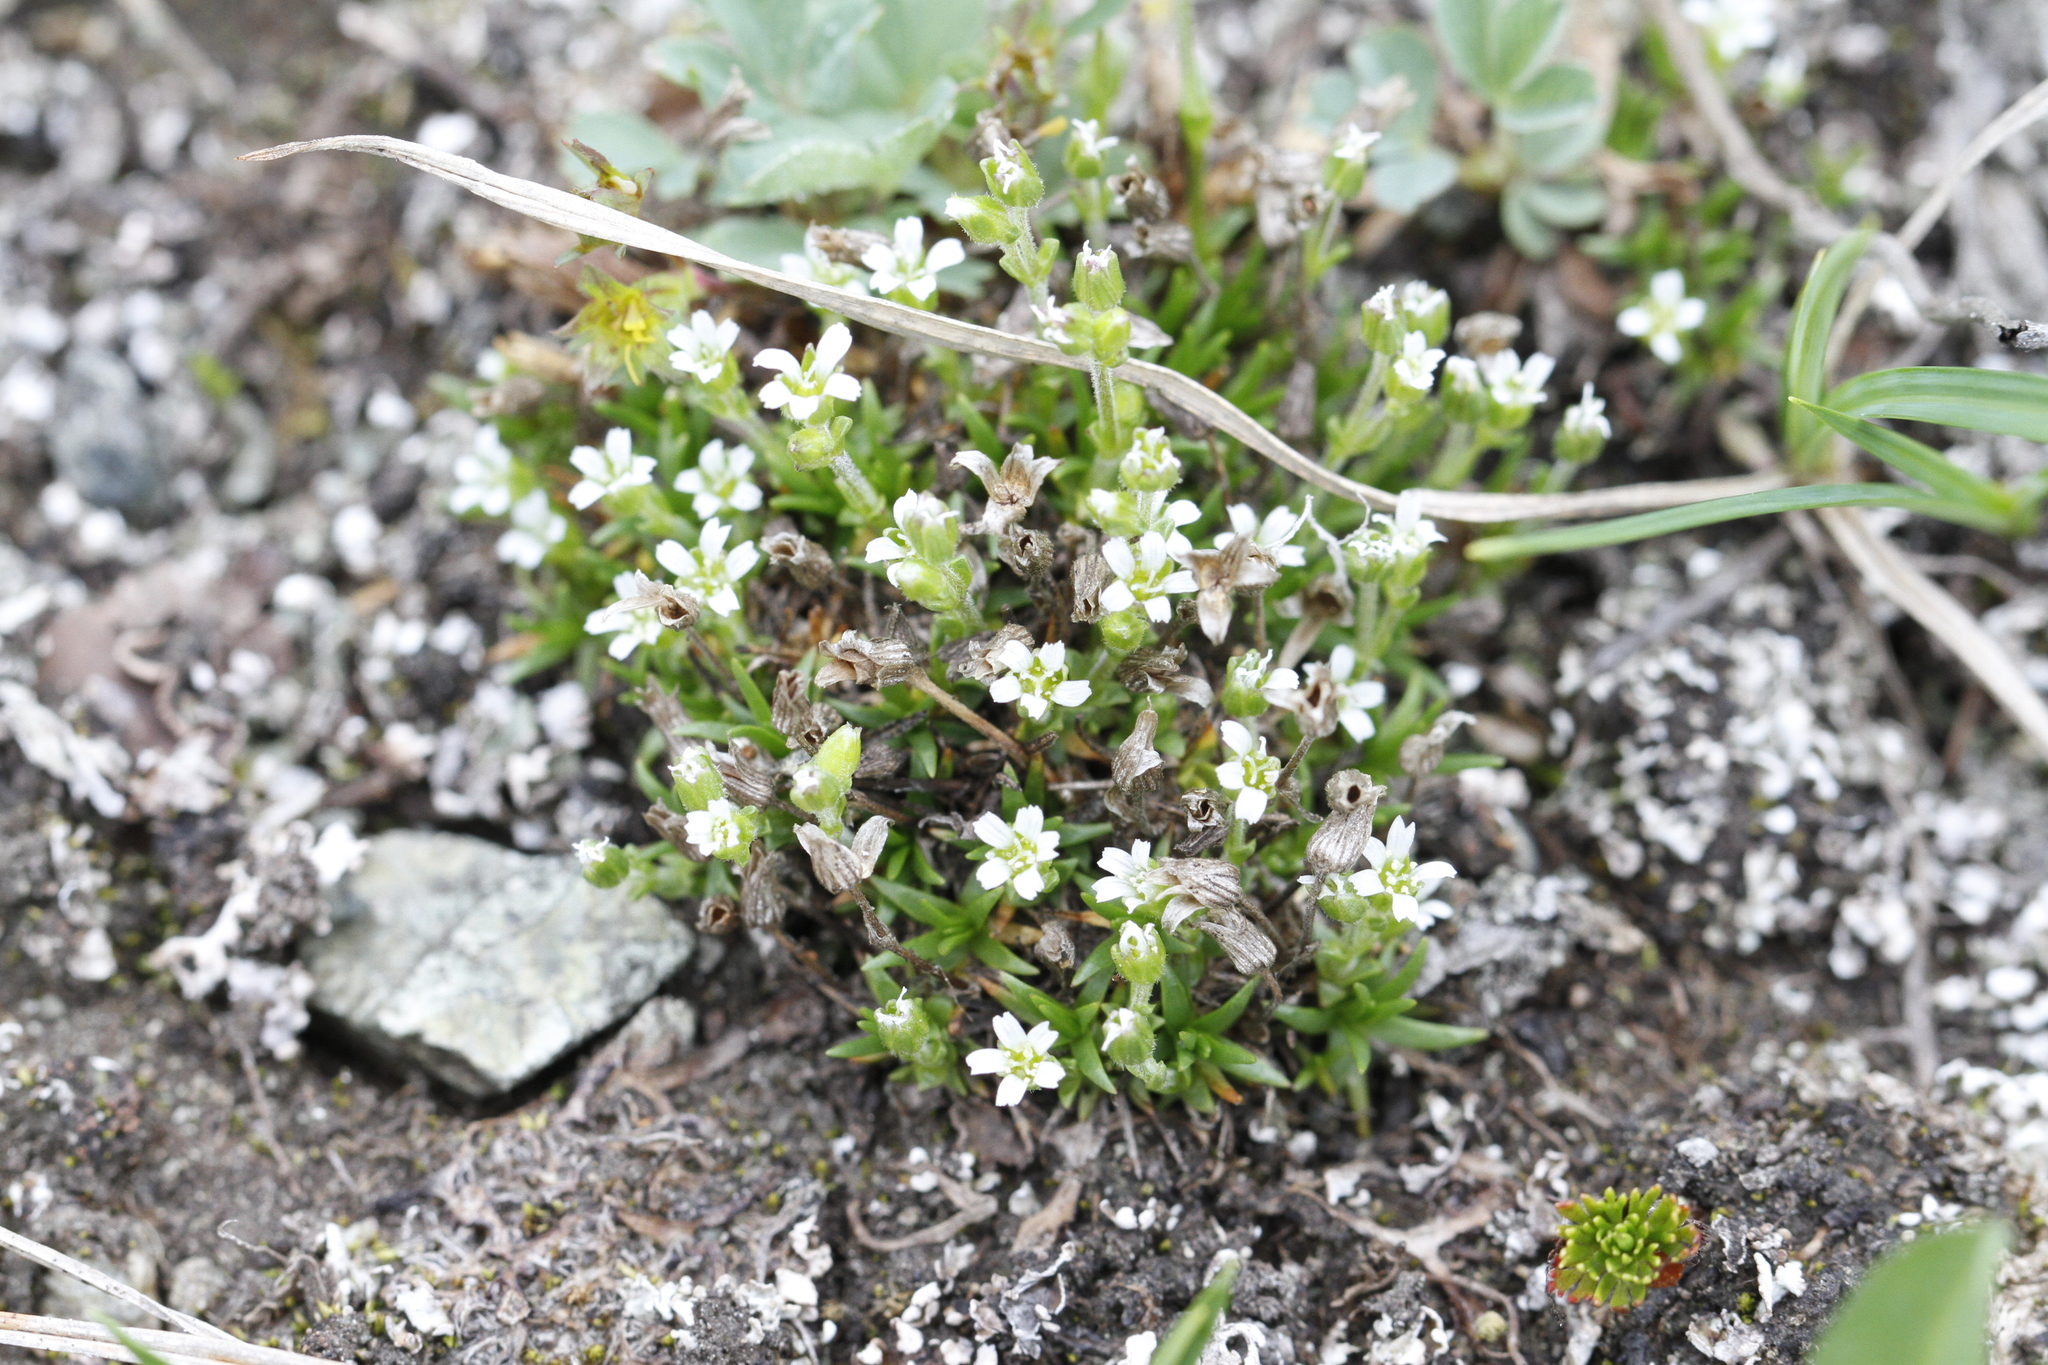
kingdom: Plantae
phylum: Tracheophyta
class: Magnoliopsida
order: Caryophyllales
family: Caryophyllaceae
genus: Cherleria
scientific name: Cherleria biflora
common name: Mountain sandwort
